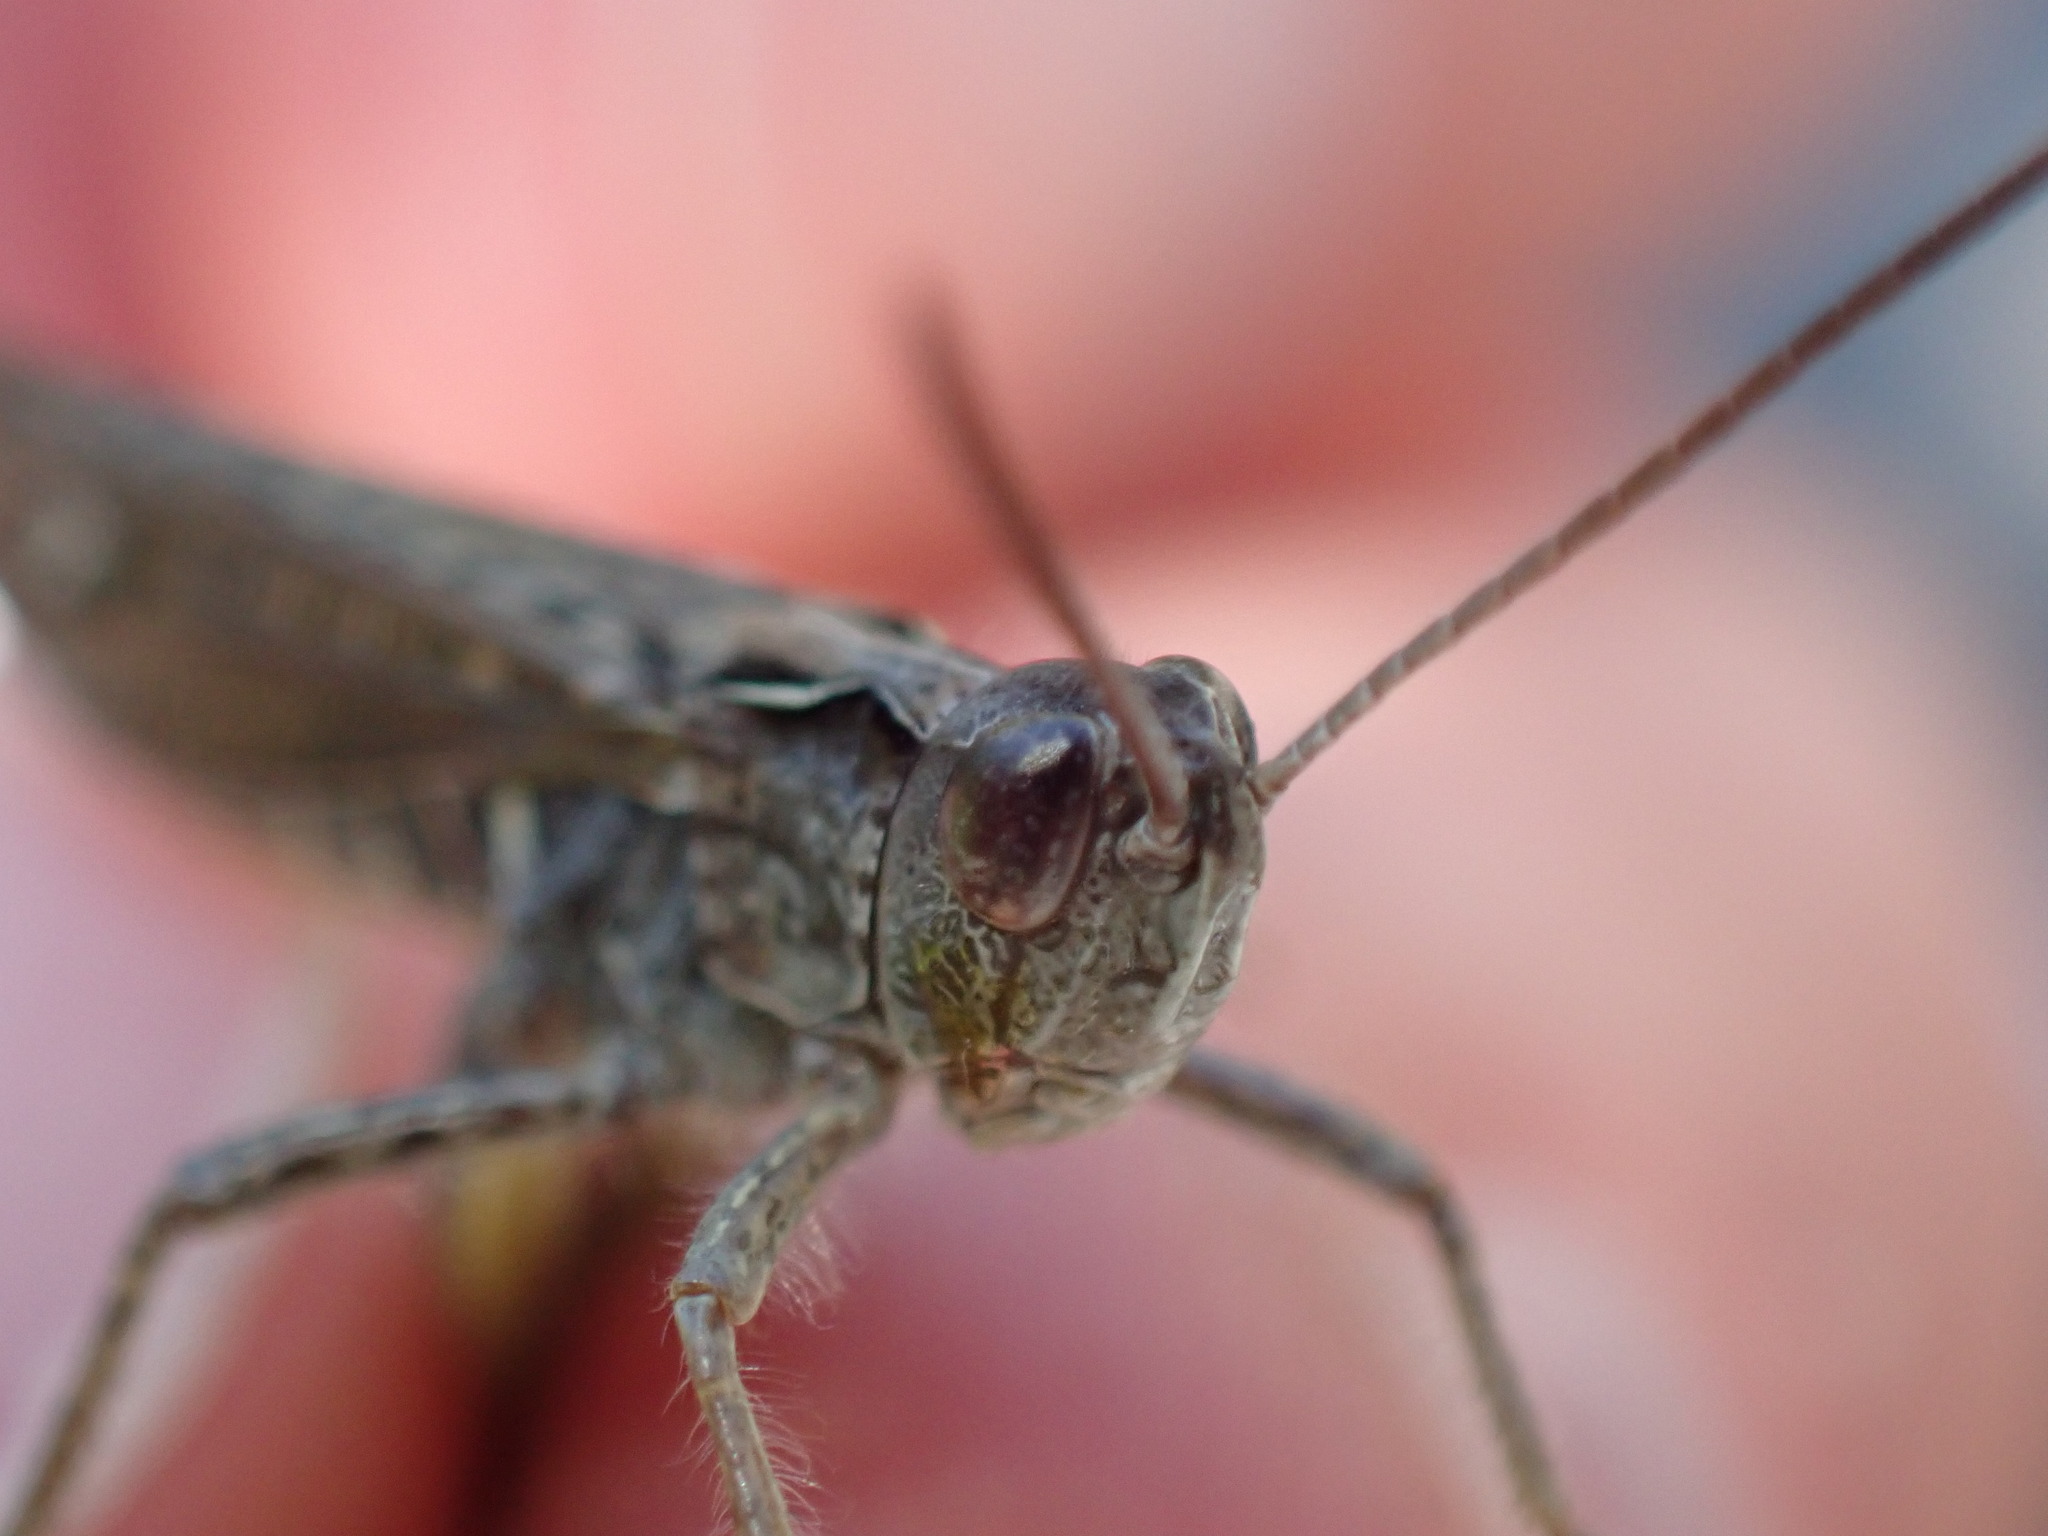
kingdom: Animalia
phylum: Arthropoda
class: Insecta
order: Orthoptera
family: Acrididae
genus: Chorthippus
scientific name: Chorthippus biguttulus
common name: Bow-winged grasshopper
